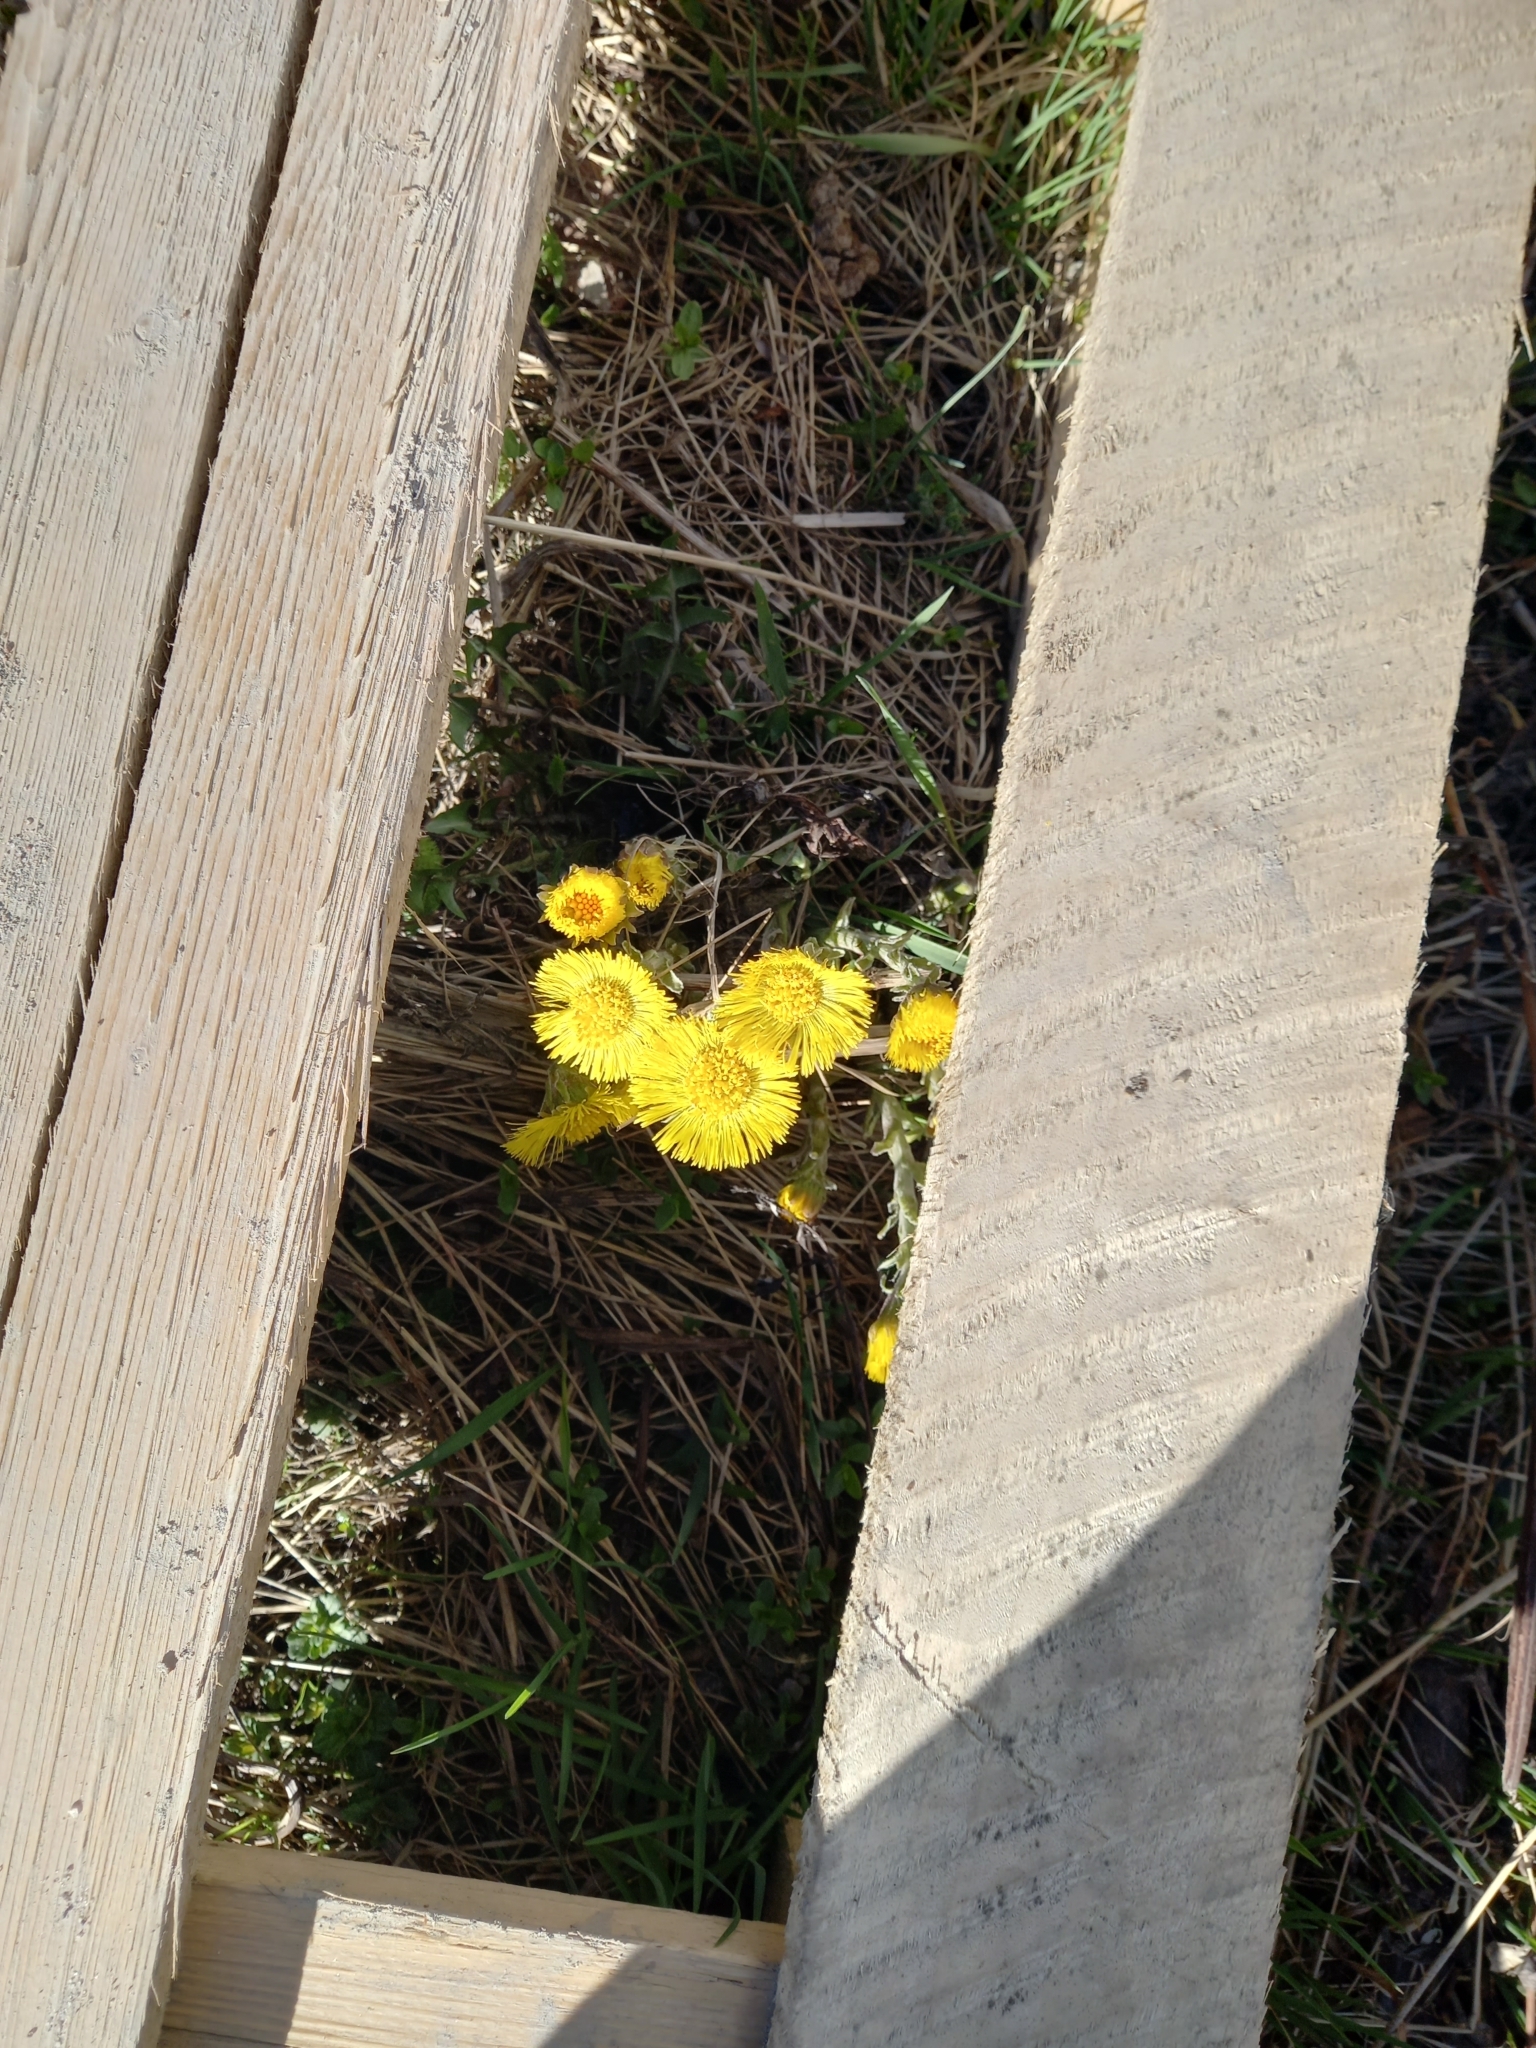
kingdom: Plantae
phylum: Tracheophyta
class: Magnoliopsida
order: Asterales
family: Asteraceae
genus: Tussilago
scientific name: Tussilago farfara
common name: Coltsfoot
